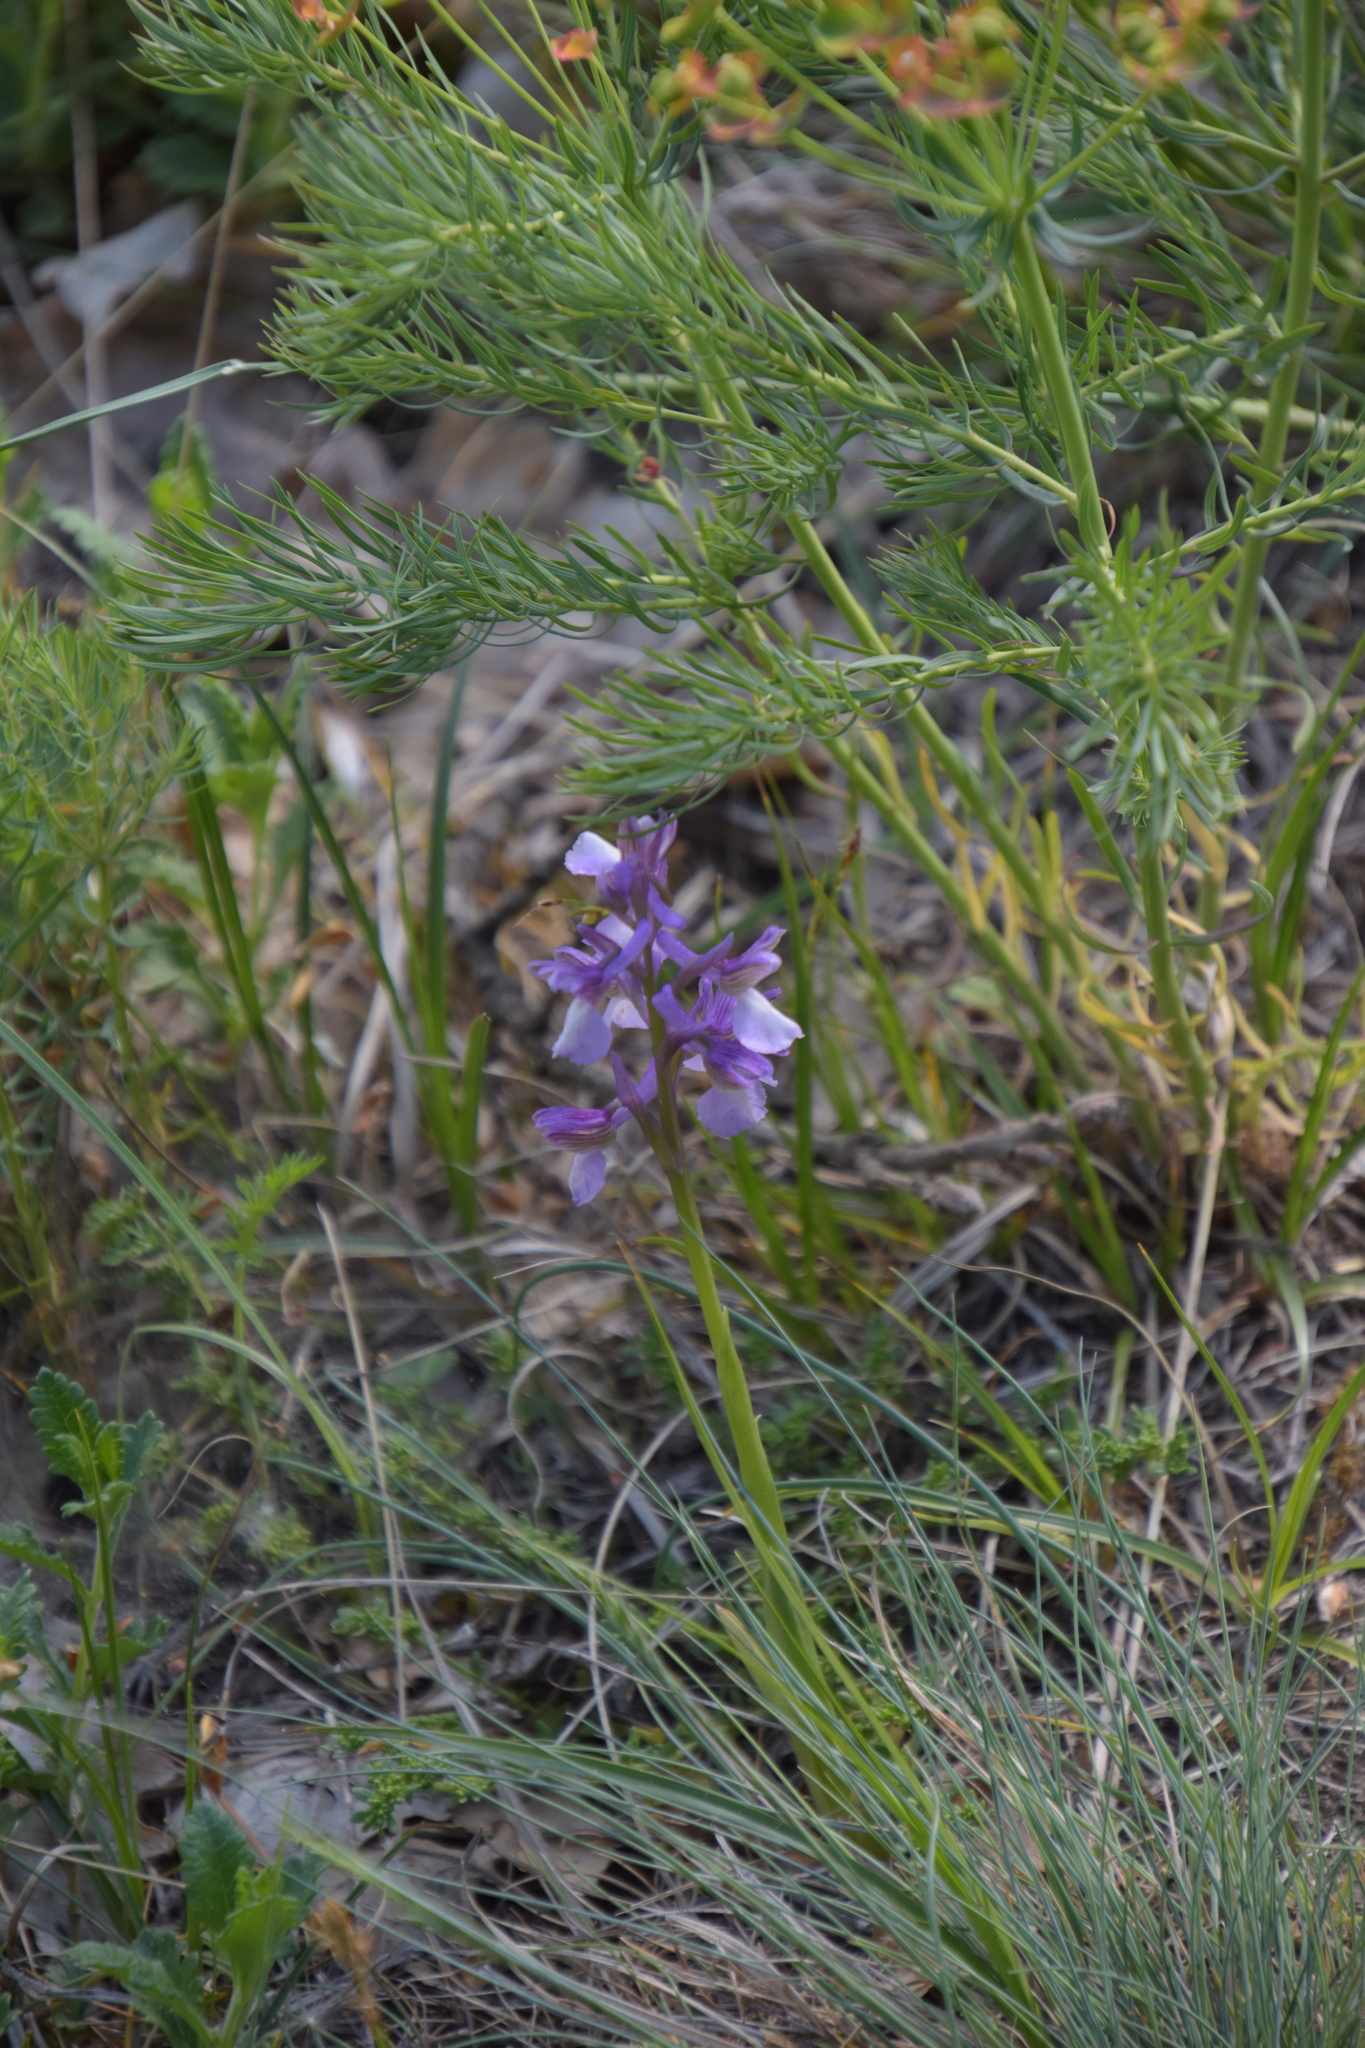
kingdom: Plantae
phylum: Tracheophyta
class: Liliopsida
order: Asparagales
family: Orchidaceae
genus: Anacamptis
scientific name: Anacamptis morio
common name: Green-winged orchid
